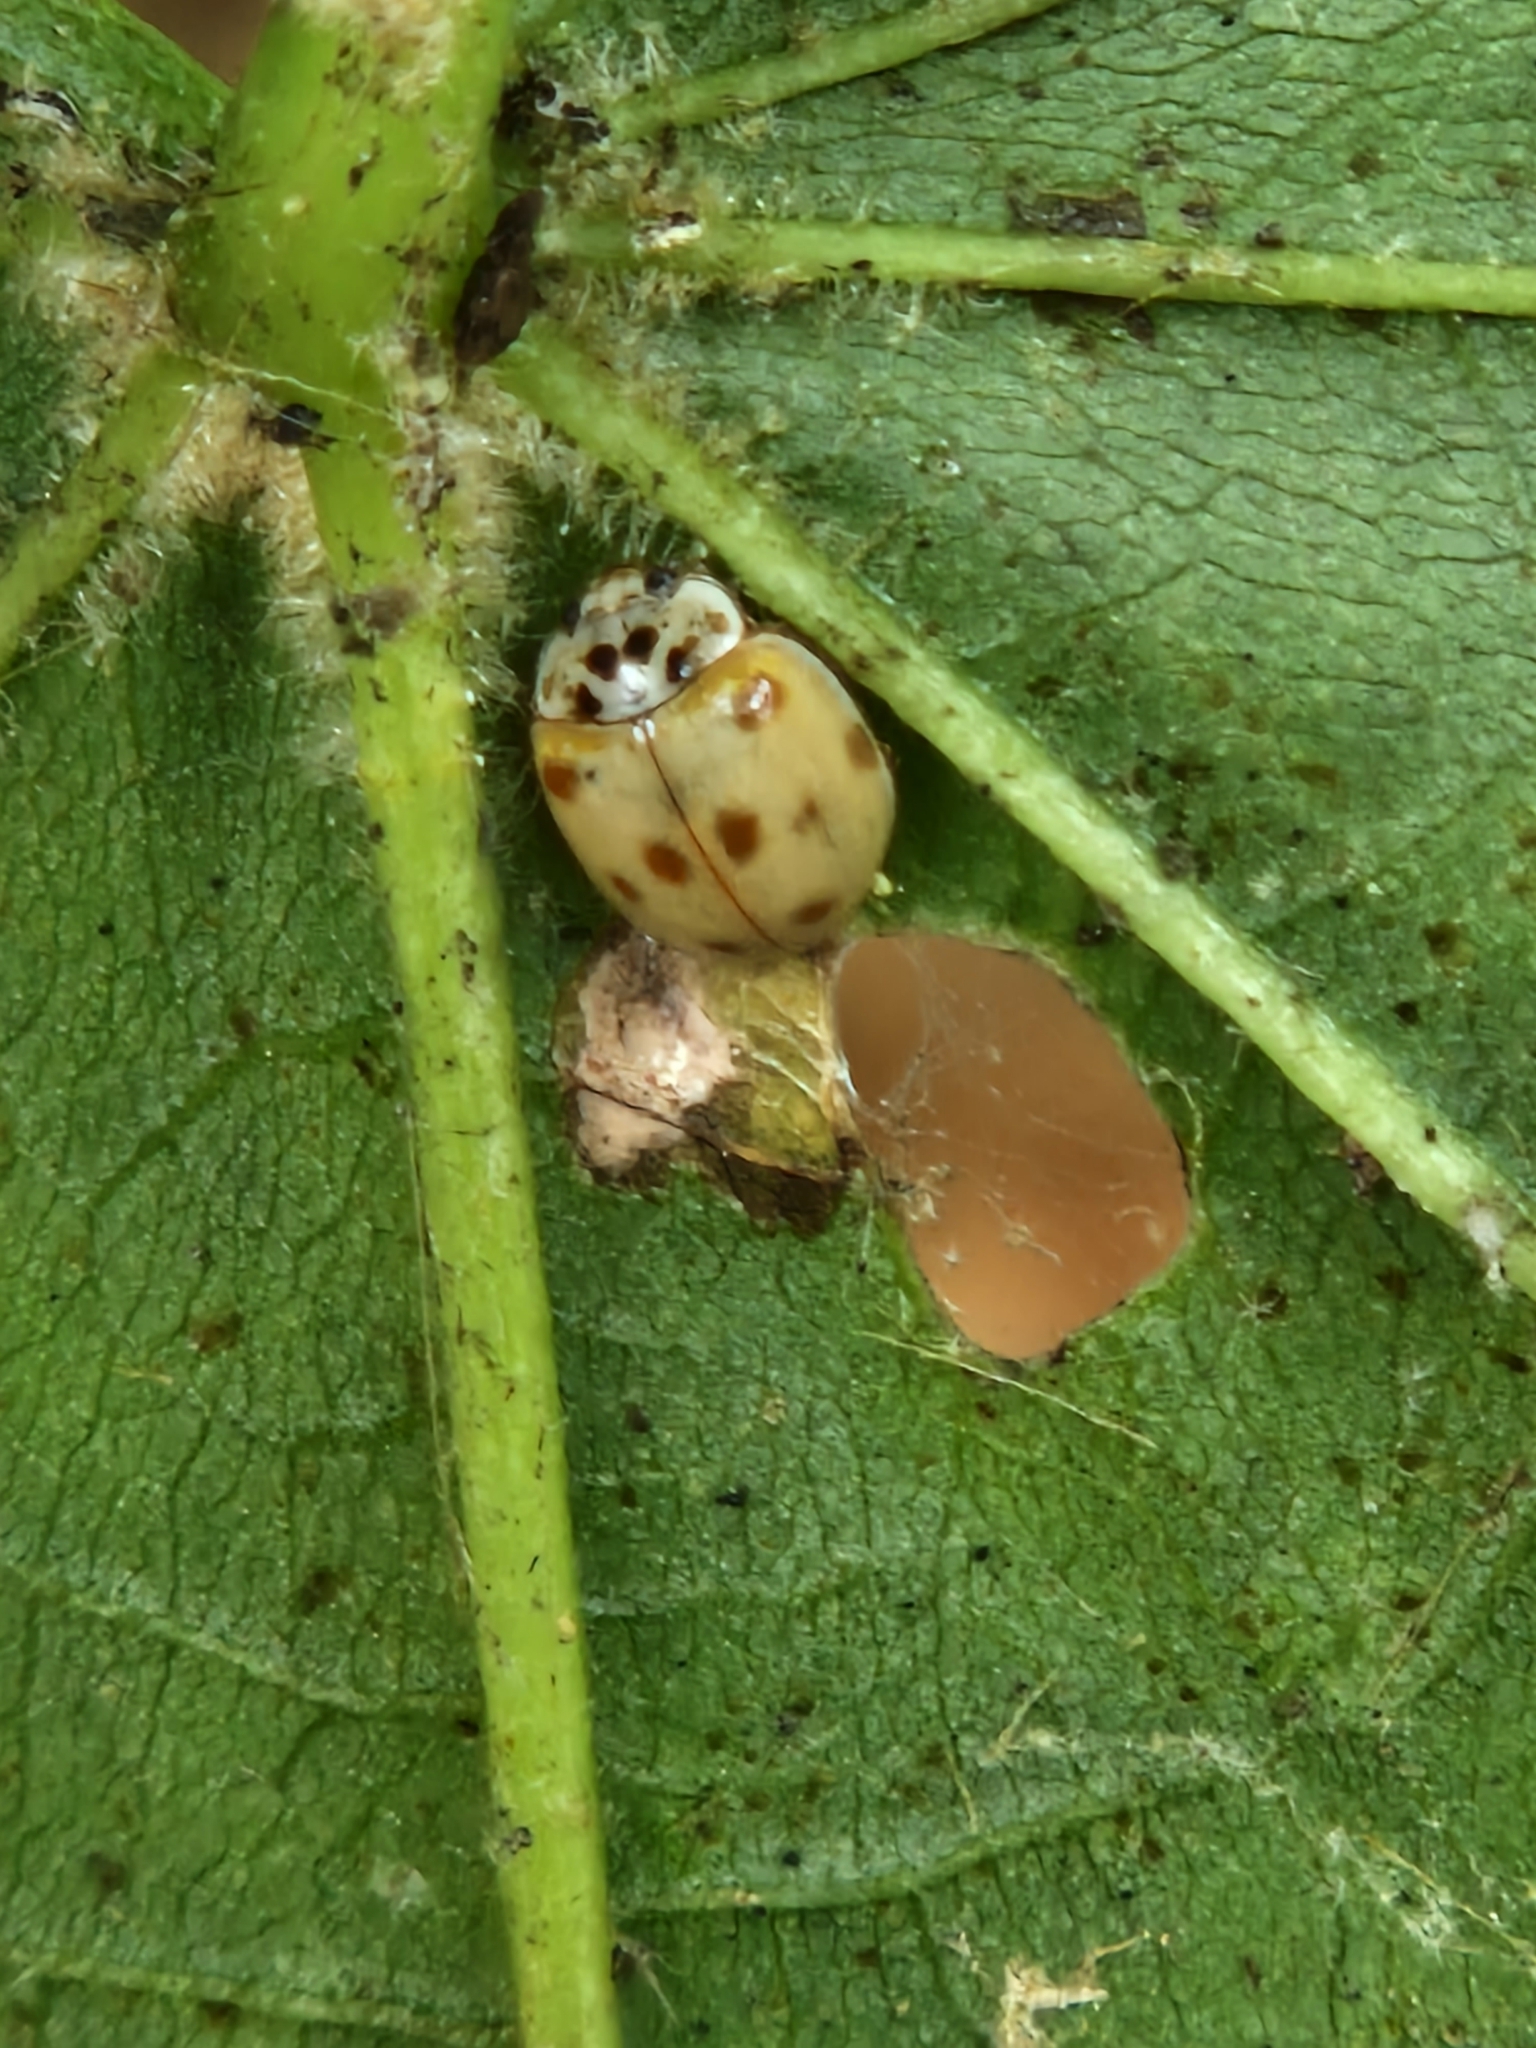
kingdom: Animalia
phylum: Arthropoda
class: Insecta
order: Coleoptera
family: Coccinellidae
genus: Adalia
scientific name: Adalia decempunctata
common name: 10-spot ladybird
